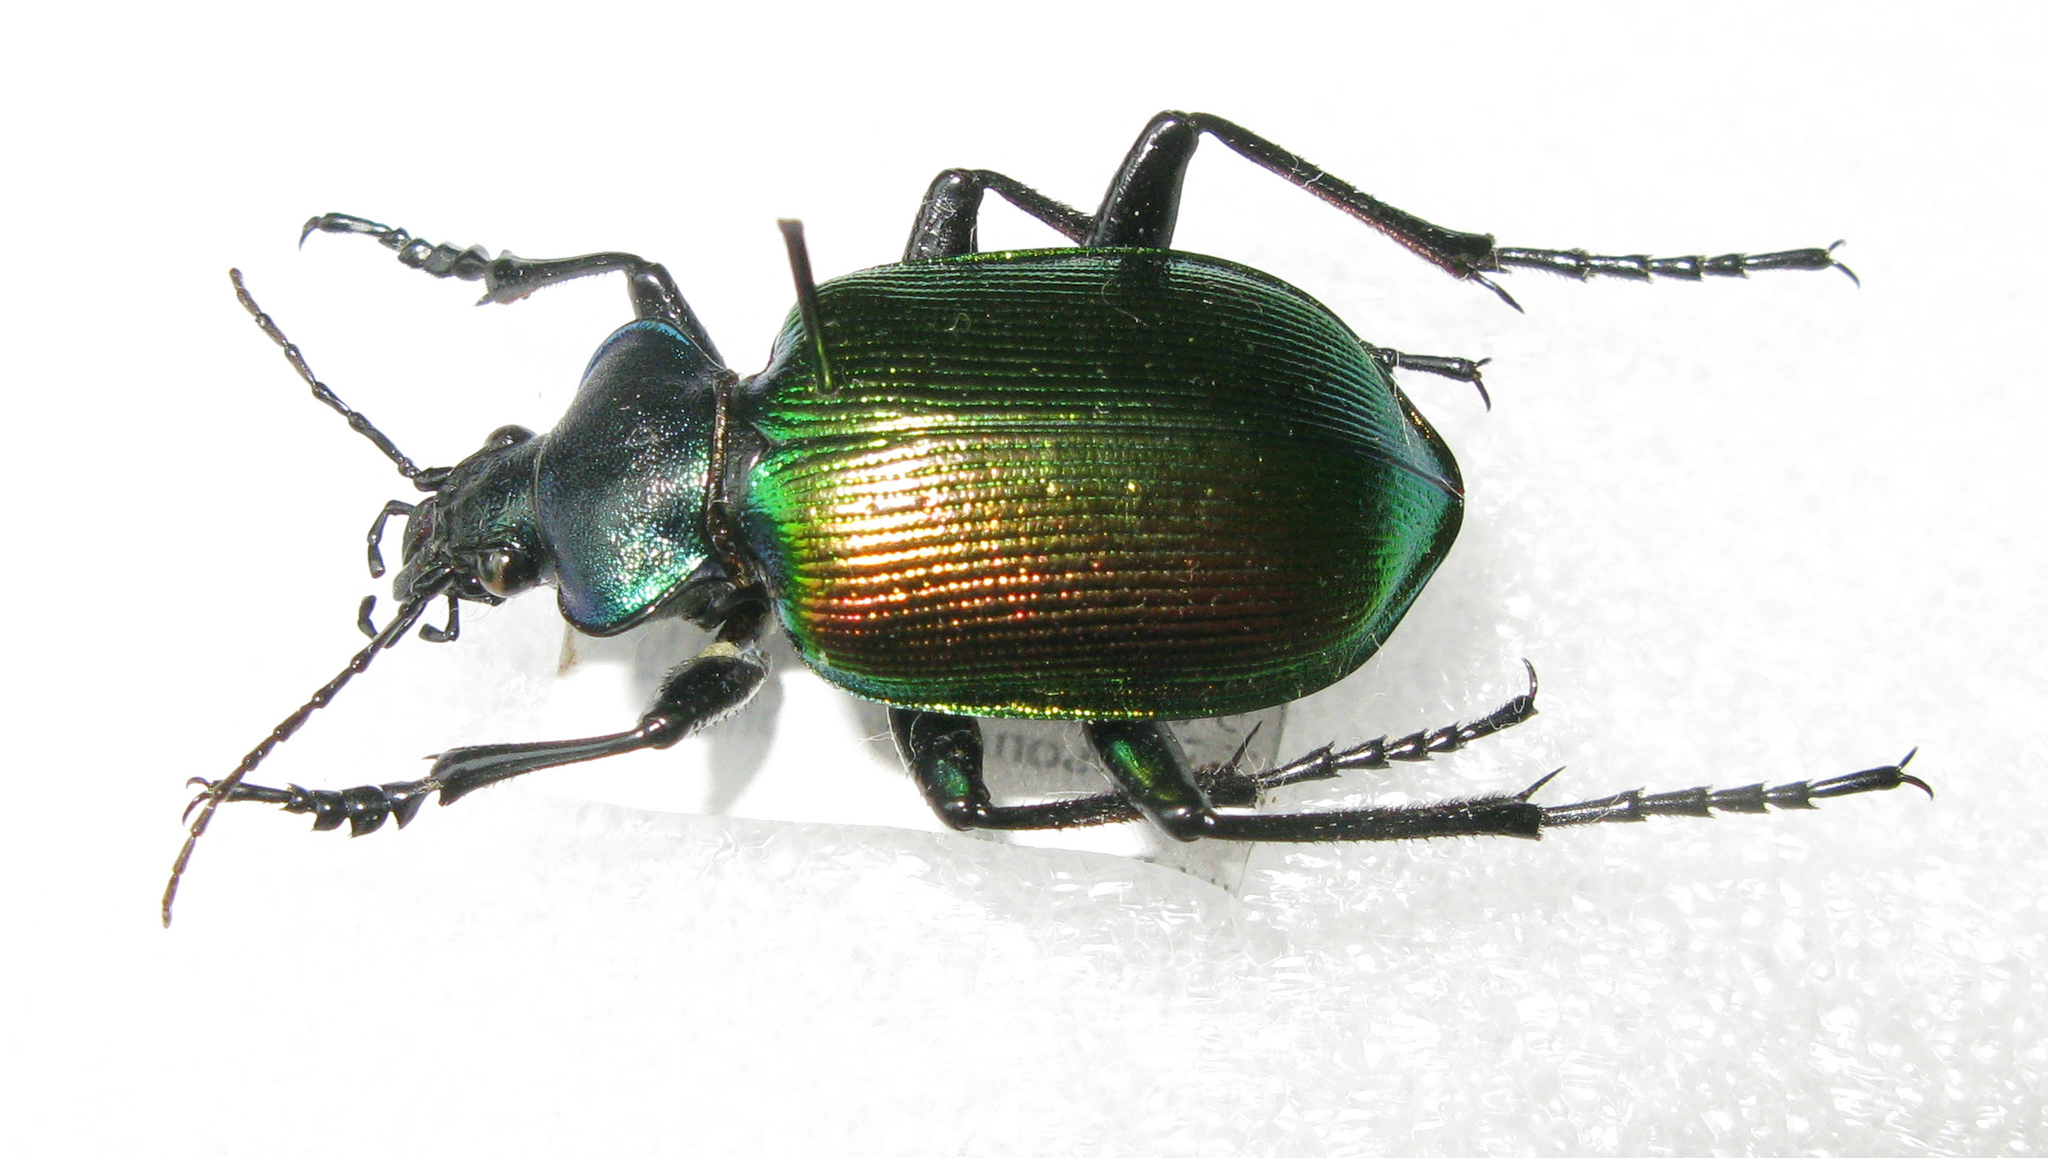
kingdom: Animalia
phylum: Arthropoda
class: Insecta
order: Coleoptera
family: Carabidae
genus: Calosoma
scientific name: Calosoma sycophanta
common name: Forest caterpillar hunter
